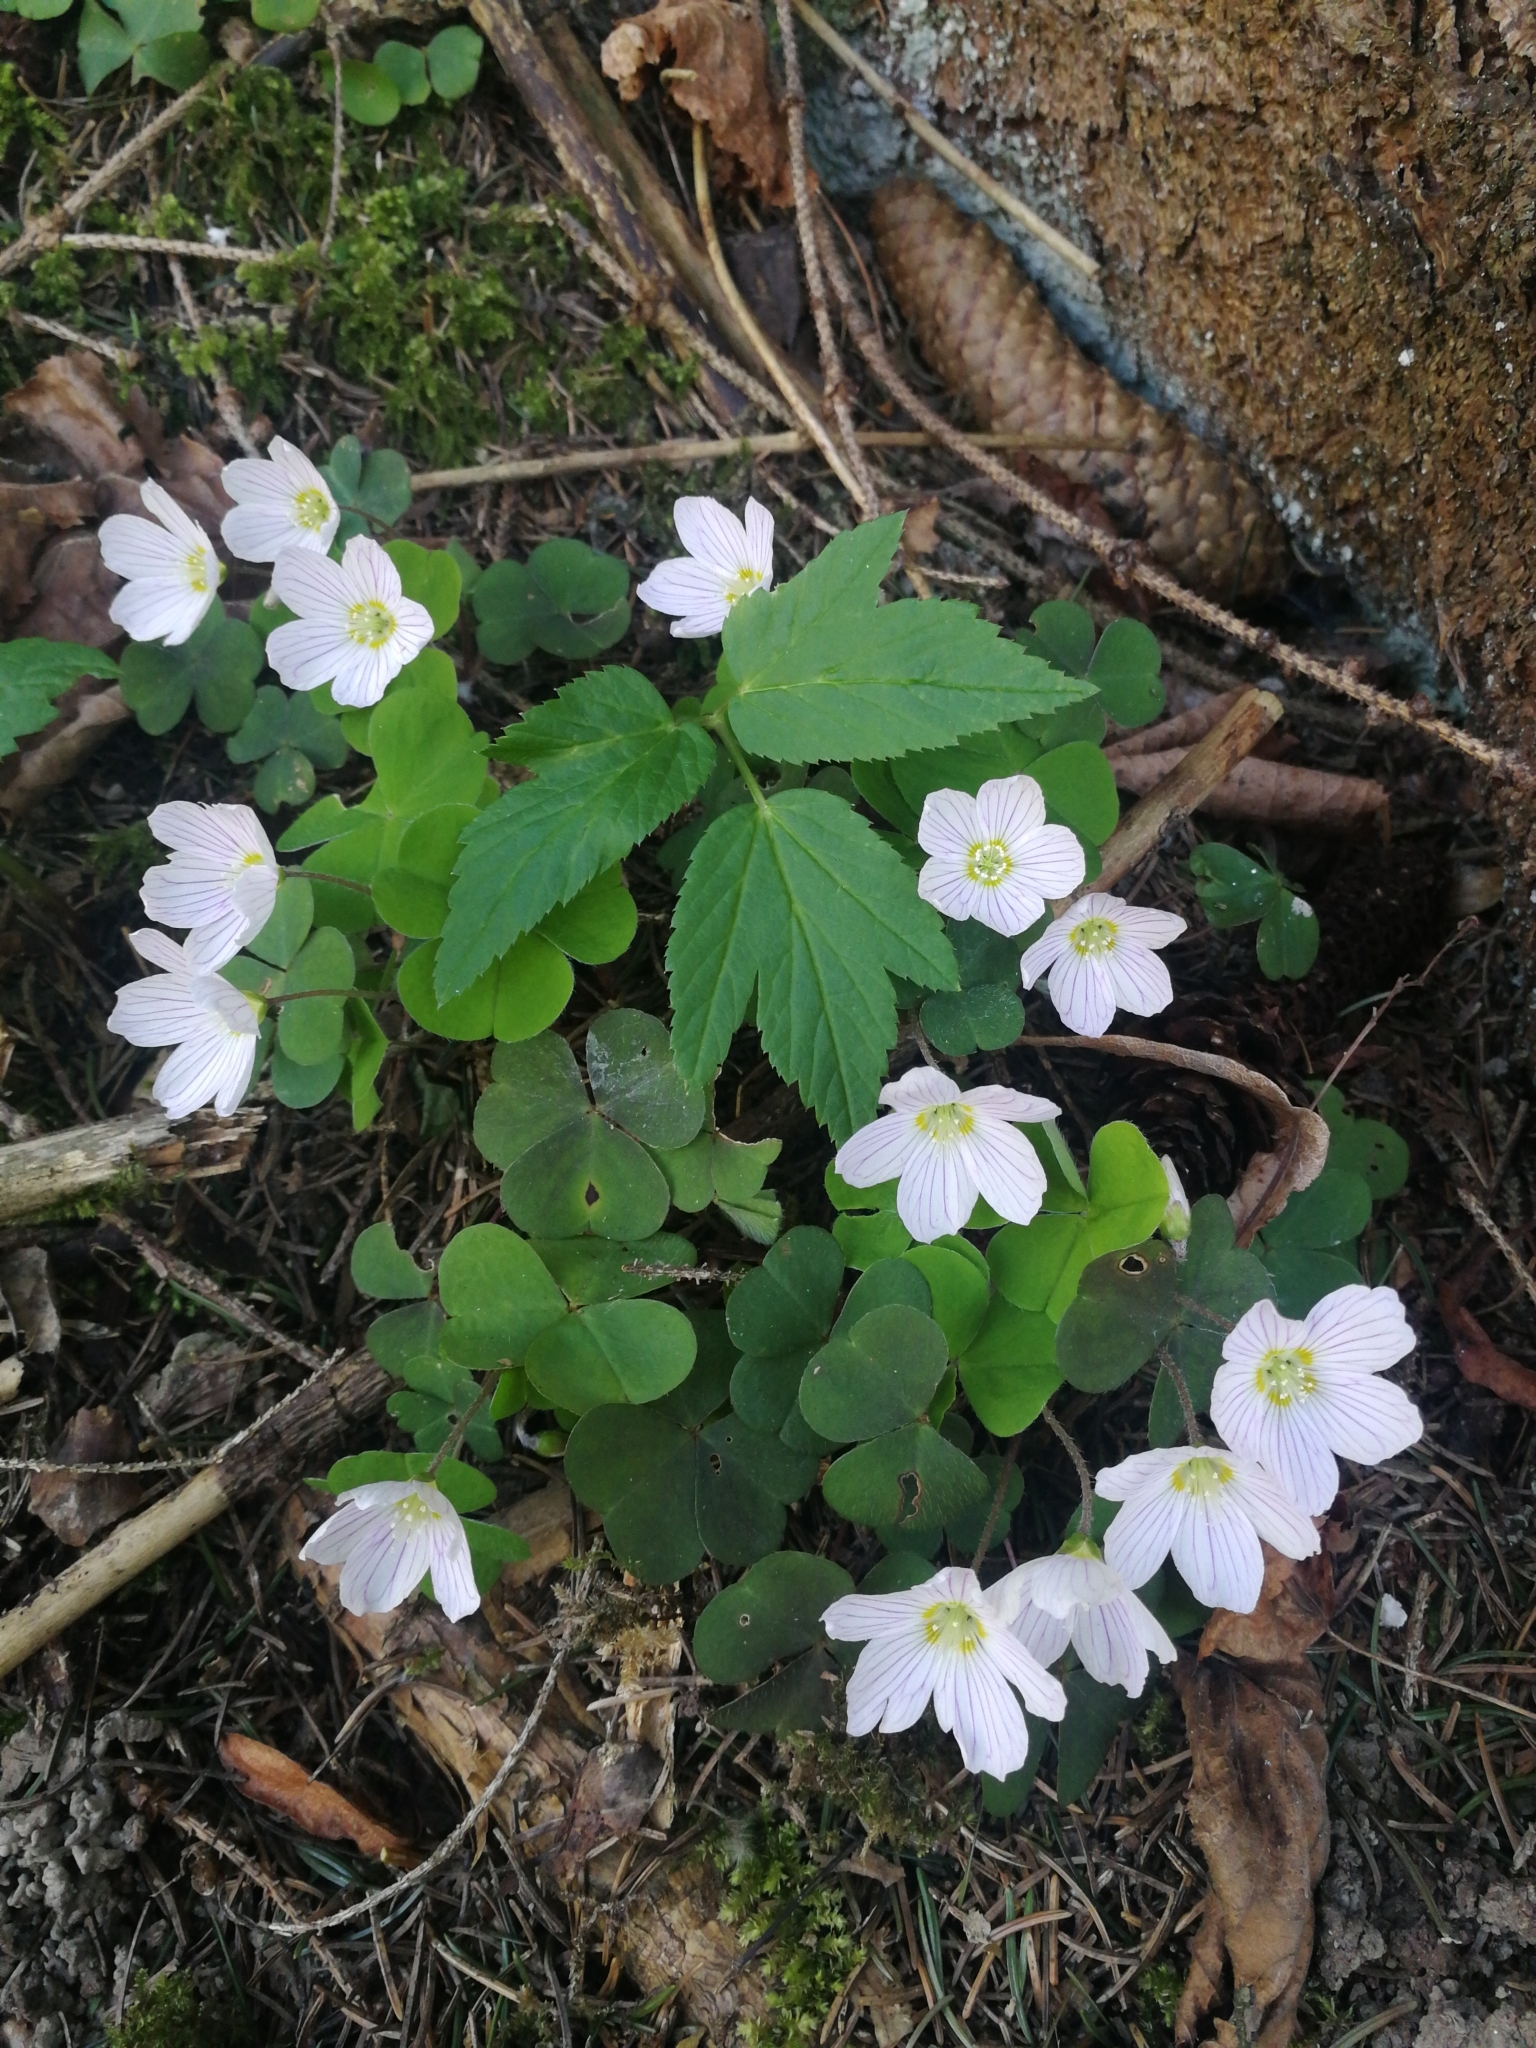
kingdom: Plantae
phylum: Tracheophyta
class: Magnoliopsida
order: Oxalidales
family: Oxalidaceae
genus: Oxalis
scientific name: Oxalis acetosella
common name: Wood-sorrel
